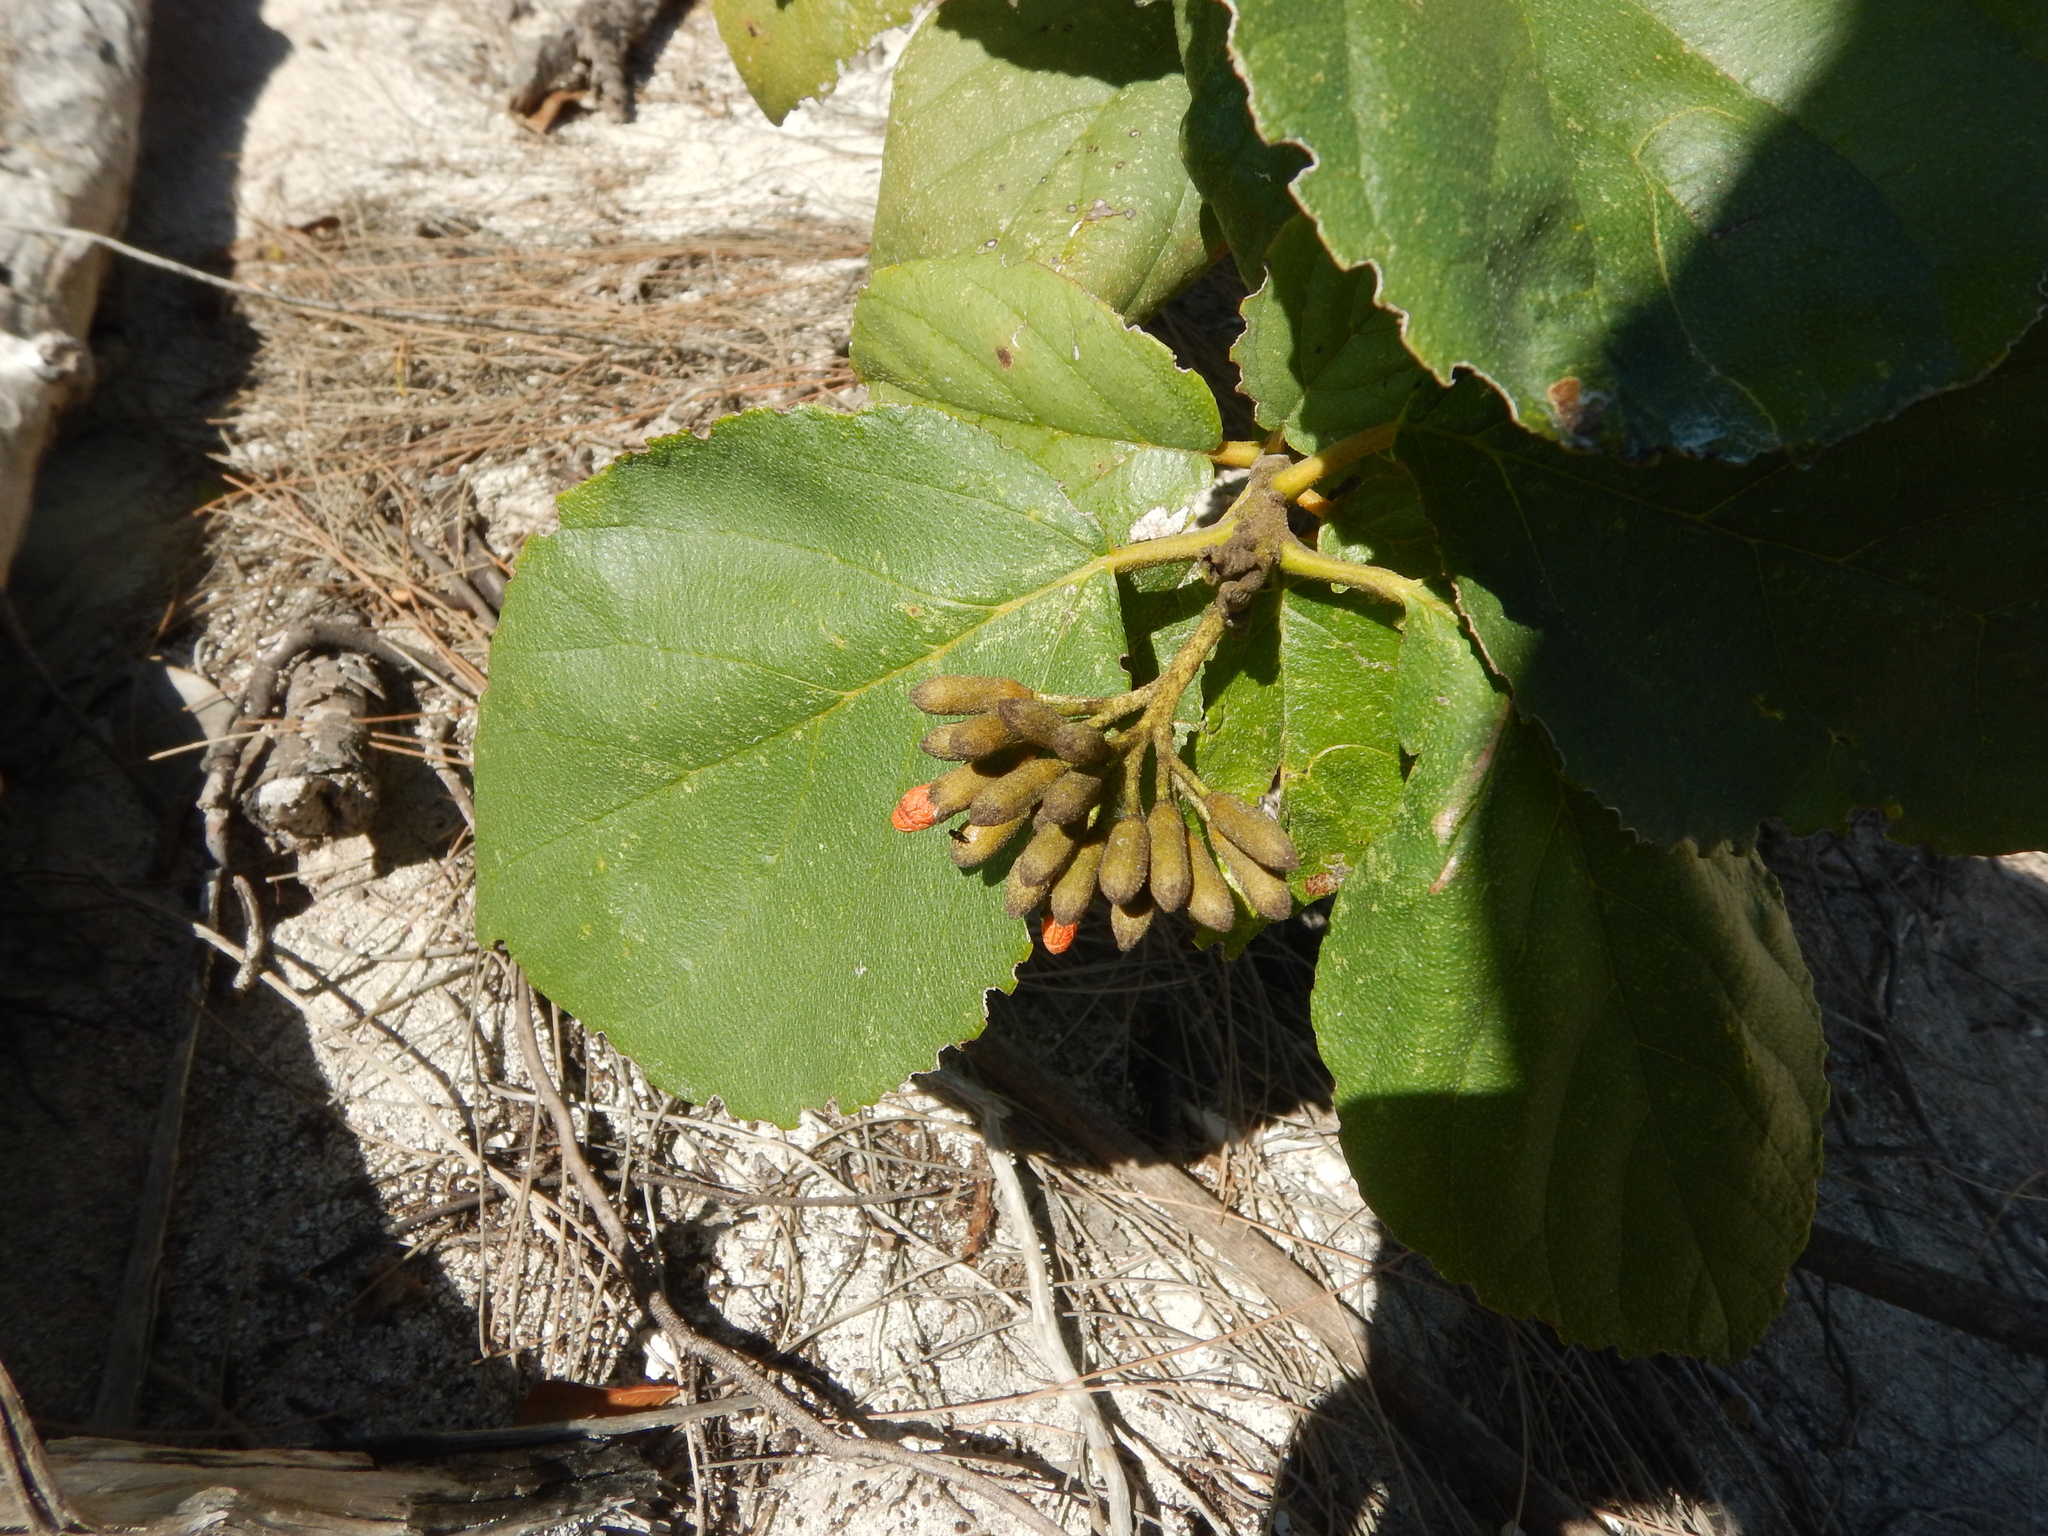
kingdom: Plantae
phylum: Tracheophyta
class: Magnoliopsida
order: Boraginales
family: Cordiaceae
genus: Cordia
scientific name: Cordia sebestena
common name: Largeleaf geigertree
